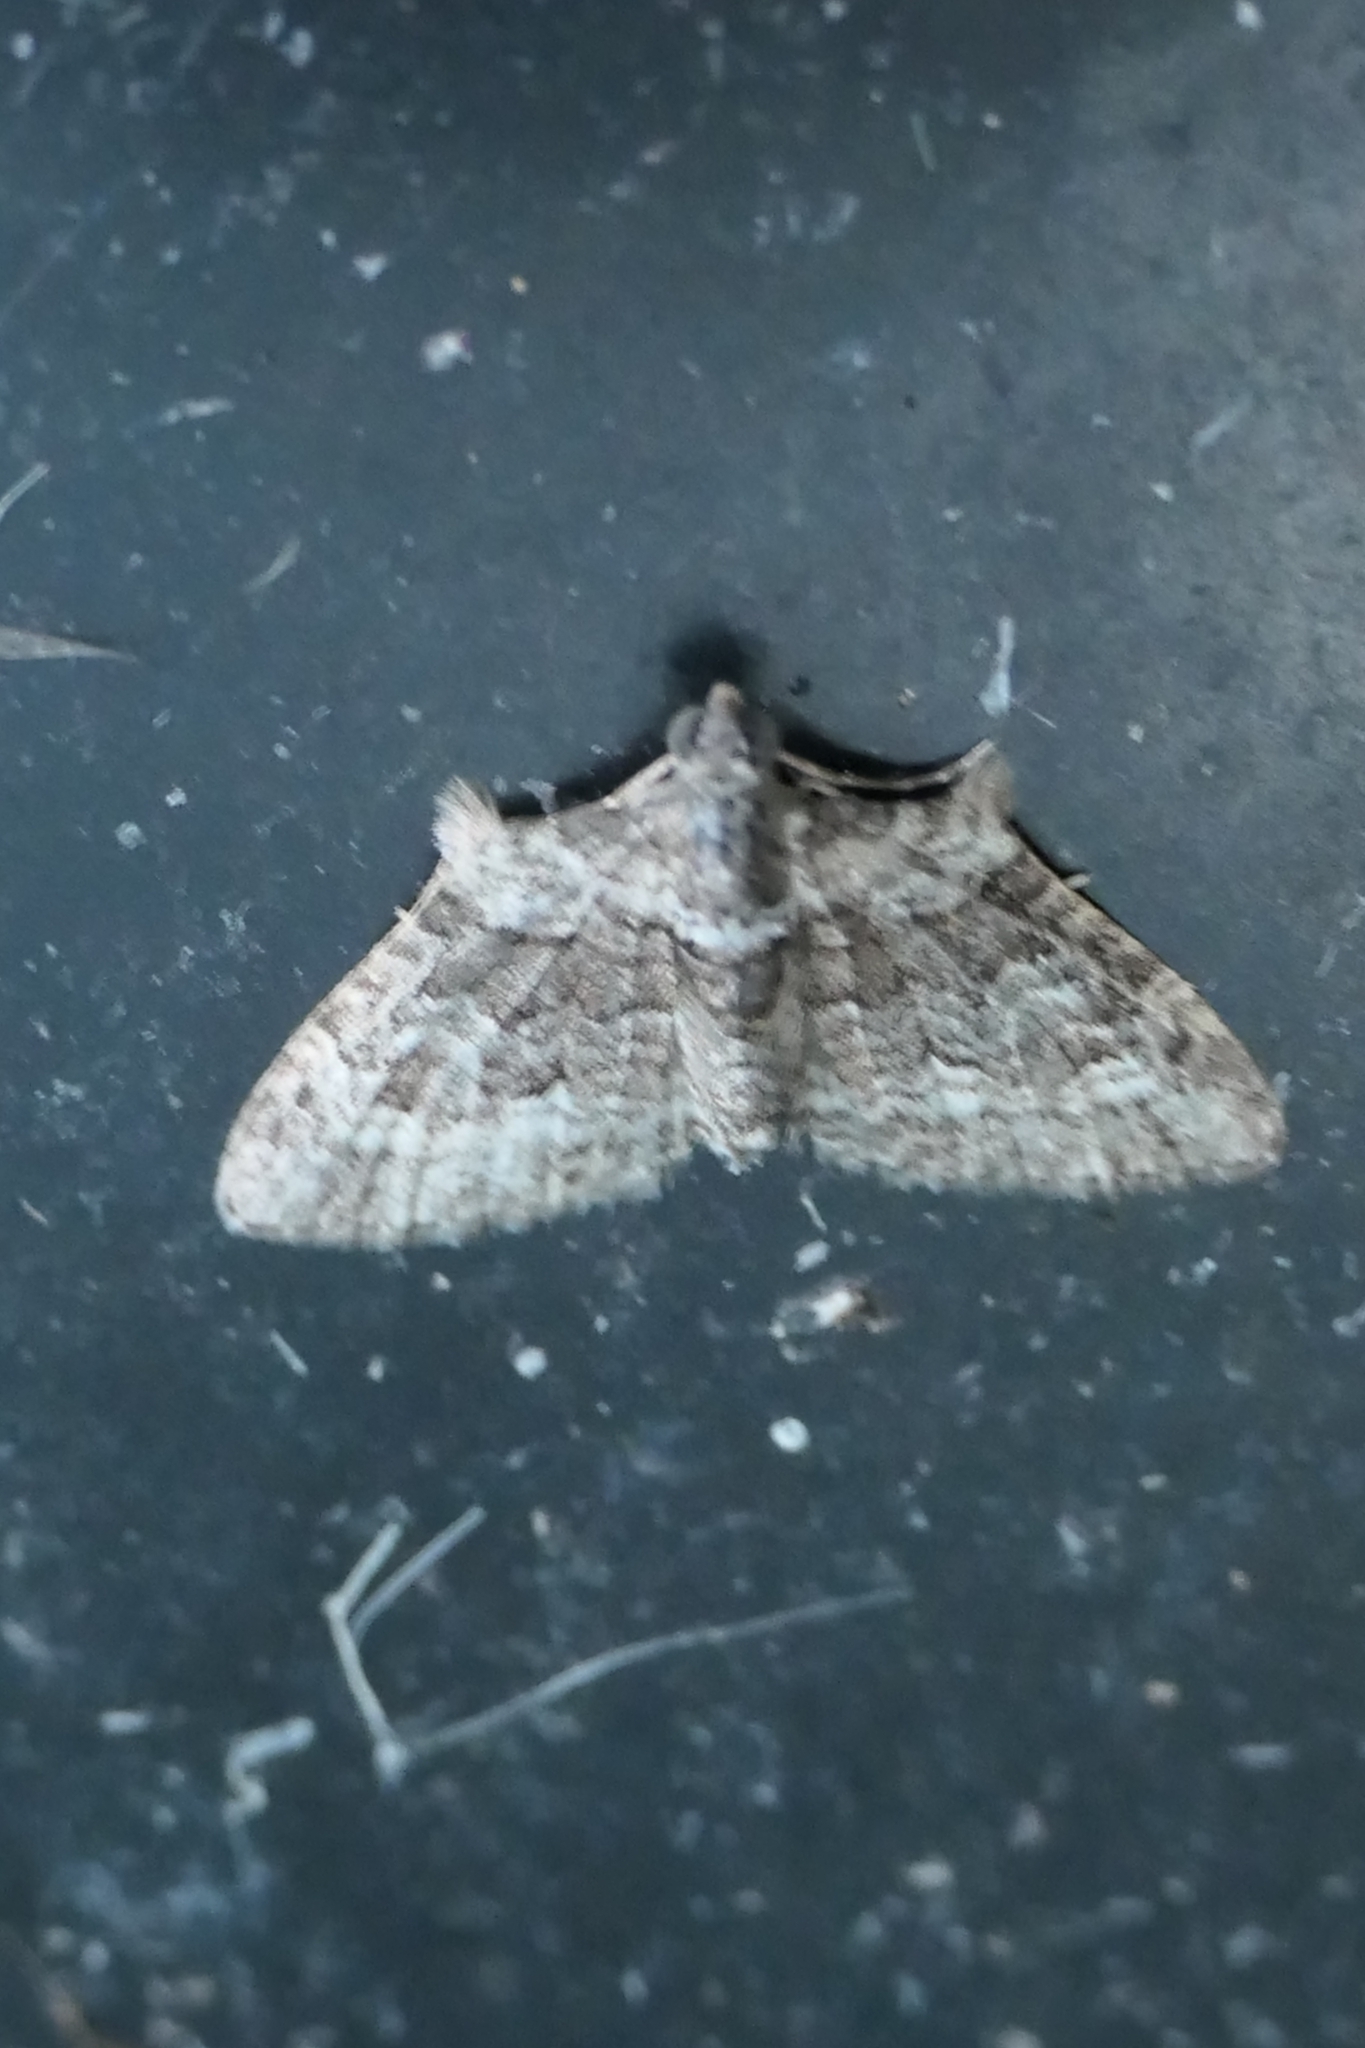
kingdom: Animalia
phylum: Arthropoda
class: Insecta
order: Lepidoptera
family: Geometridae
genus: Phrissogonus
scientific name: Phrissogonus laticostata
